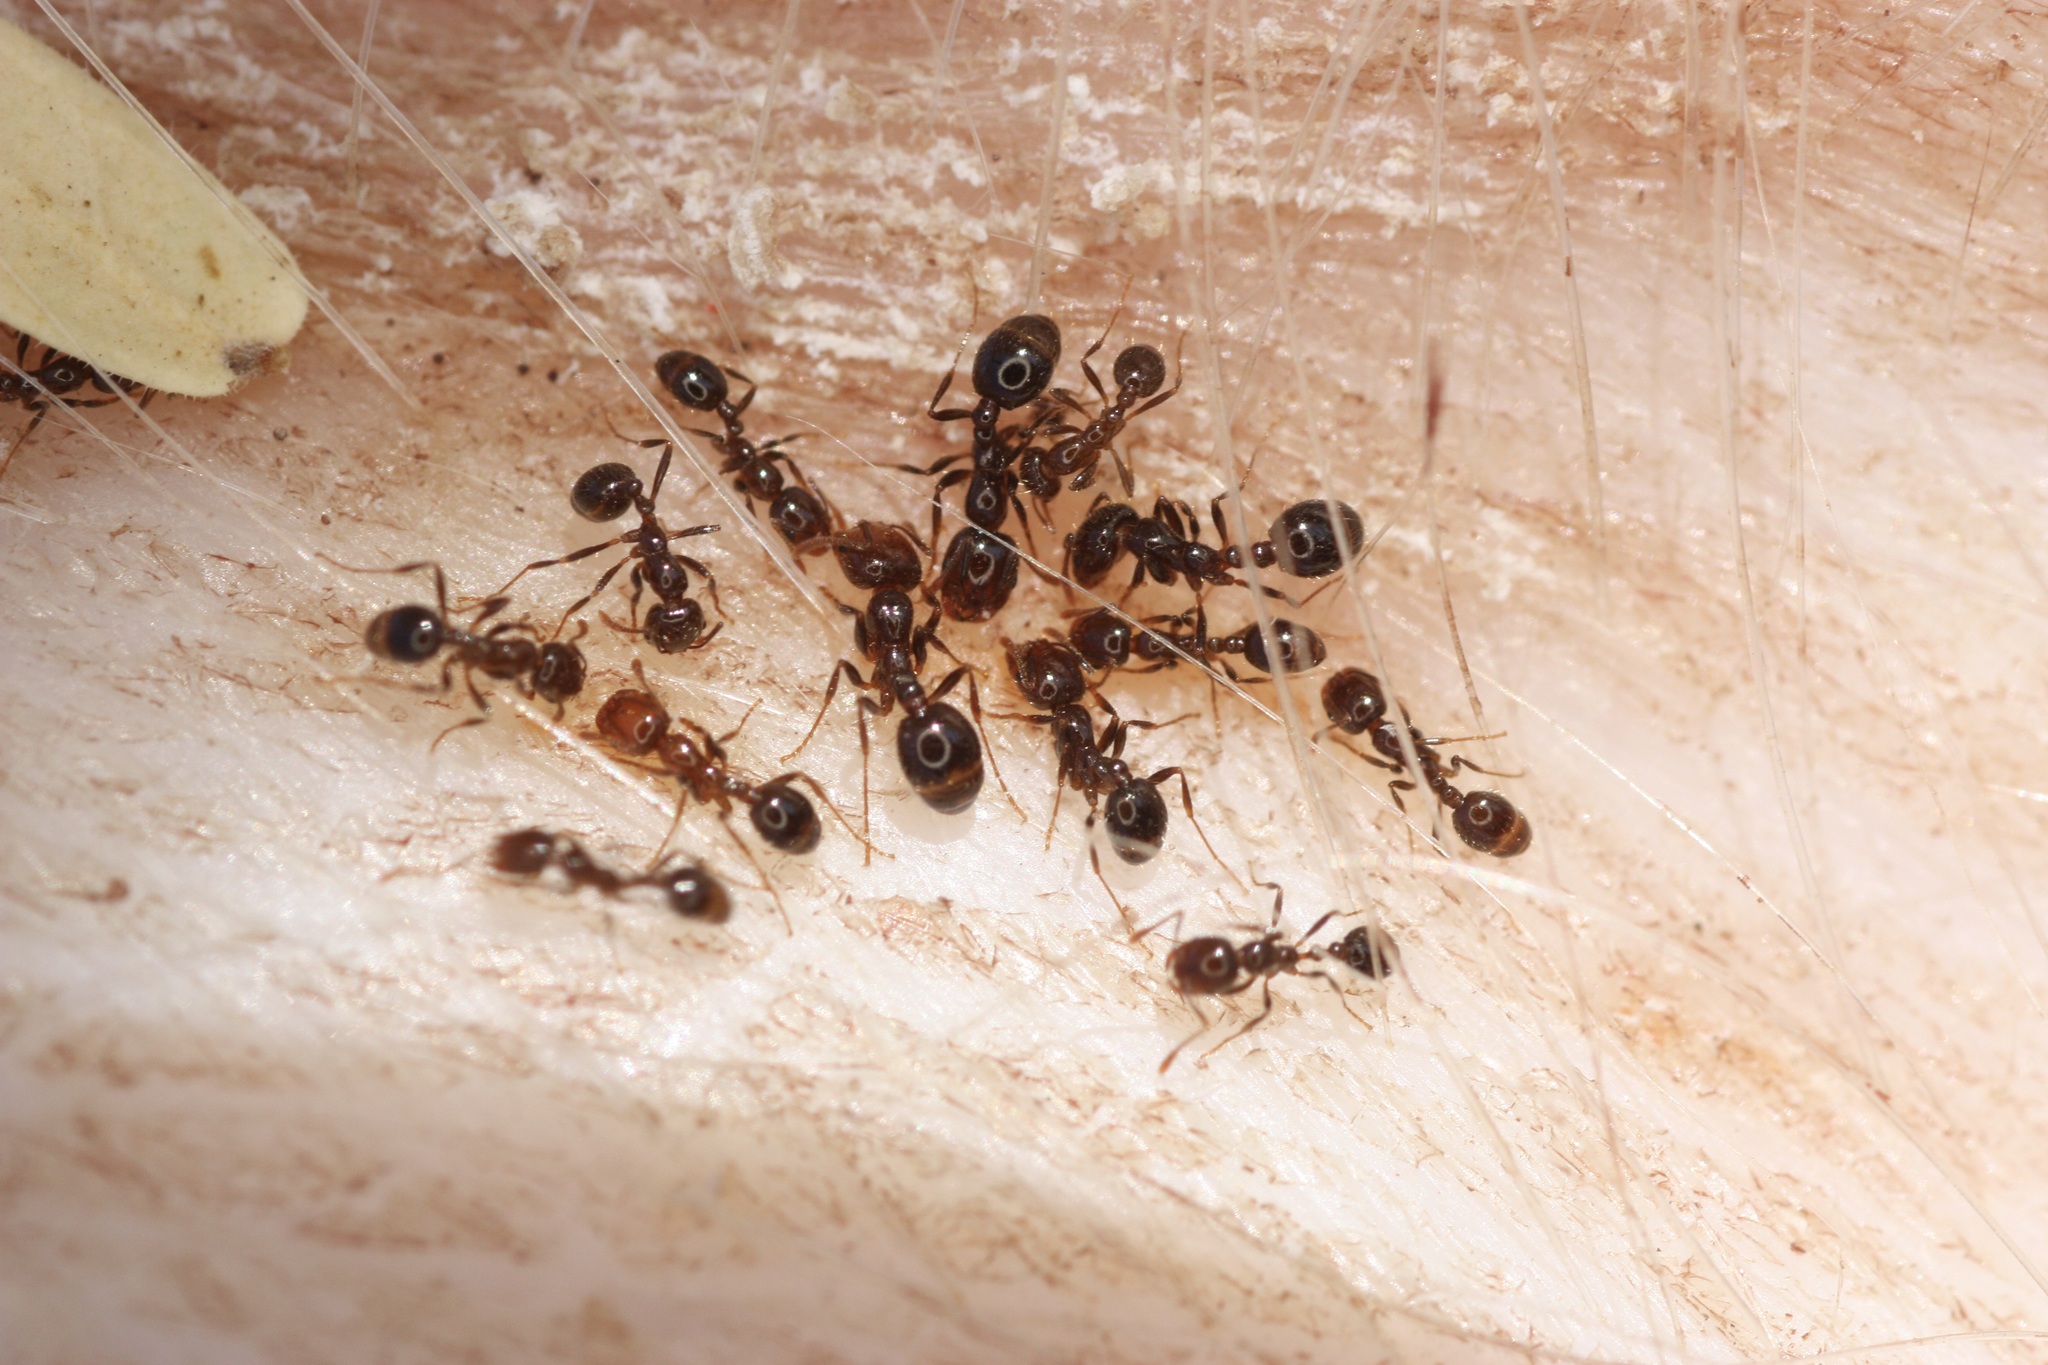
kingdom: Animalia
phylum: Arthropoda
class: Insecta
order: Hymenoptera
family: Formicidae
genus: Solenopsis
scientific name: Solenopsis xyloni
